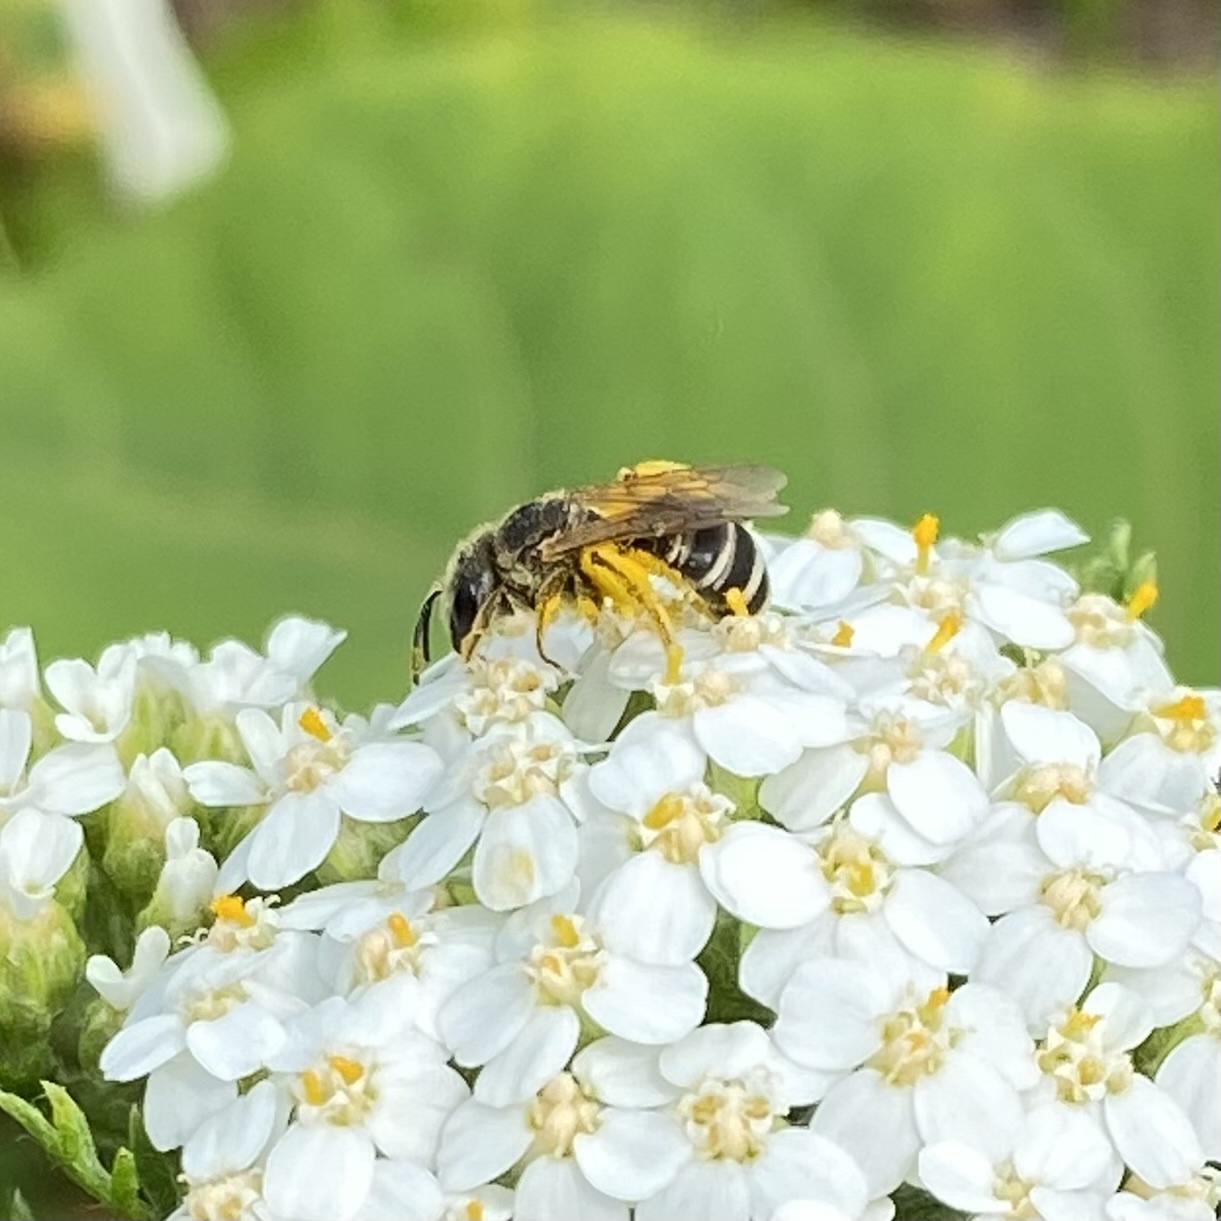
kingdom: Animalia
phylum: Arthropoda
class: Insecta
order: Hymenoptera
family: Halictidae
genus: Halictus
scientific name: Halictus ligatus
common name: Ligated furrow bee
